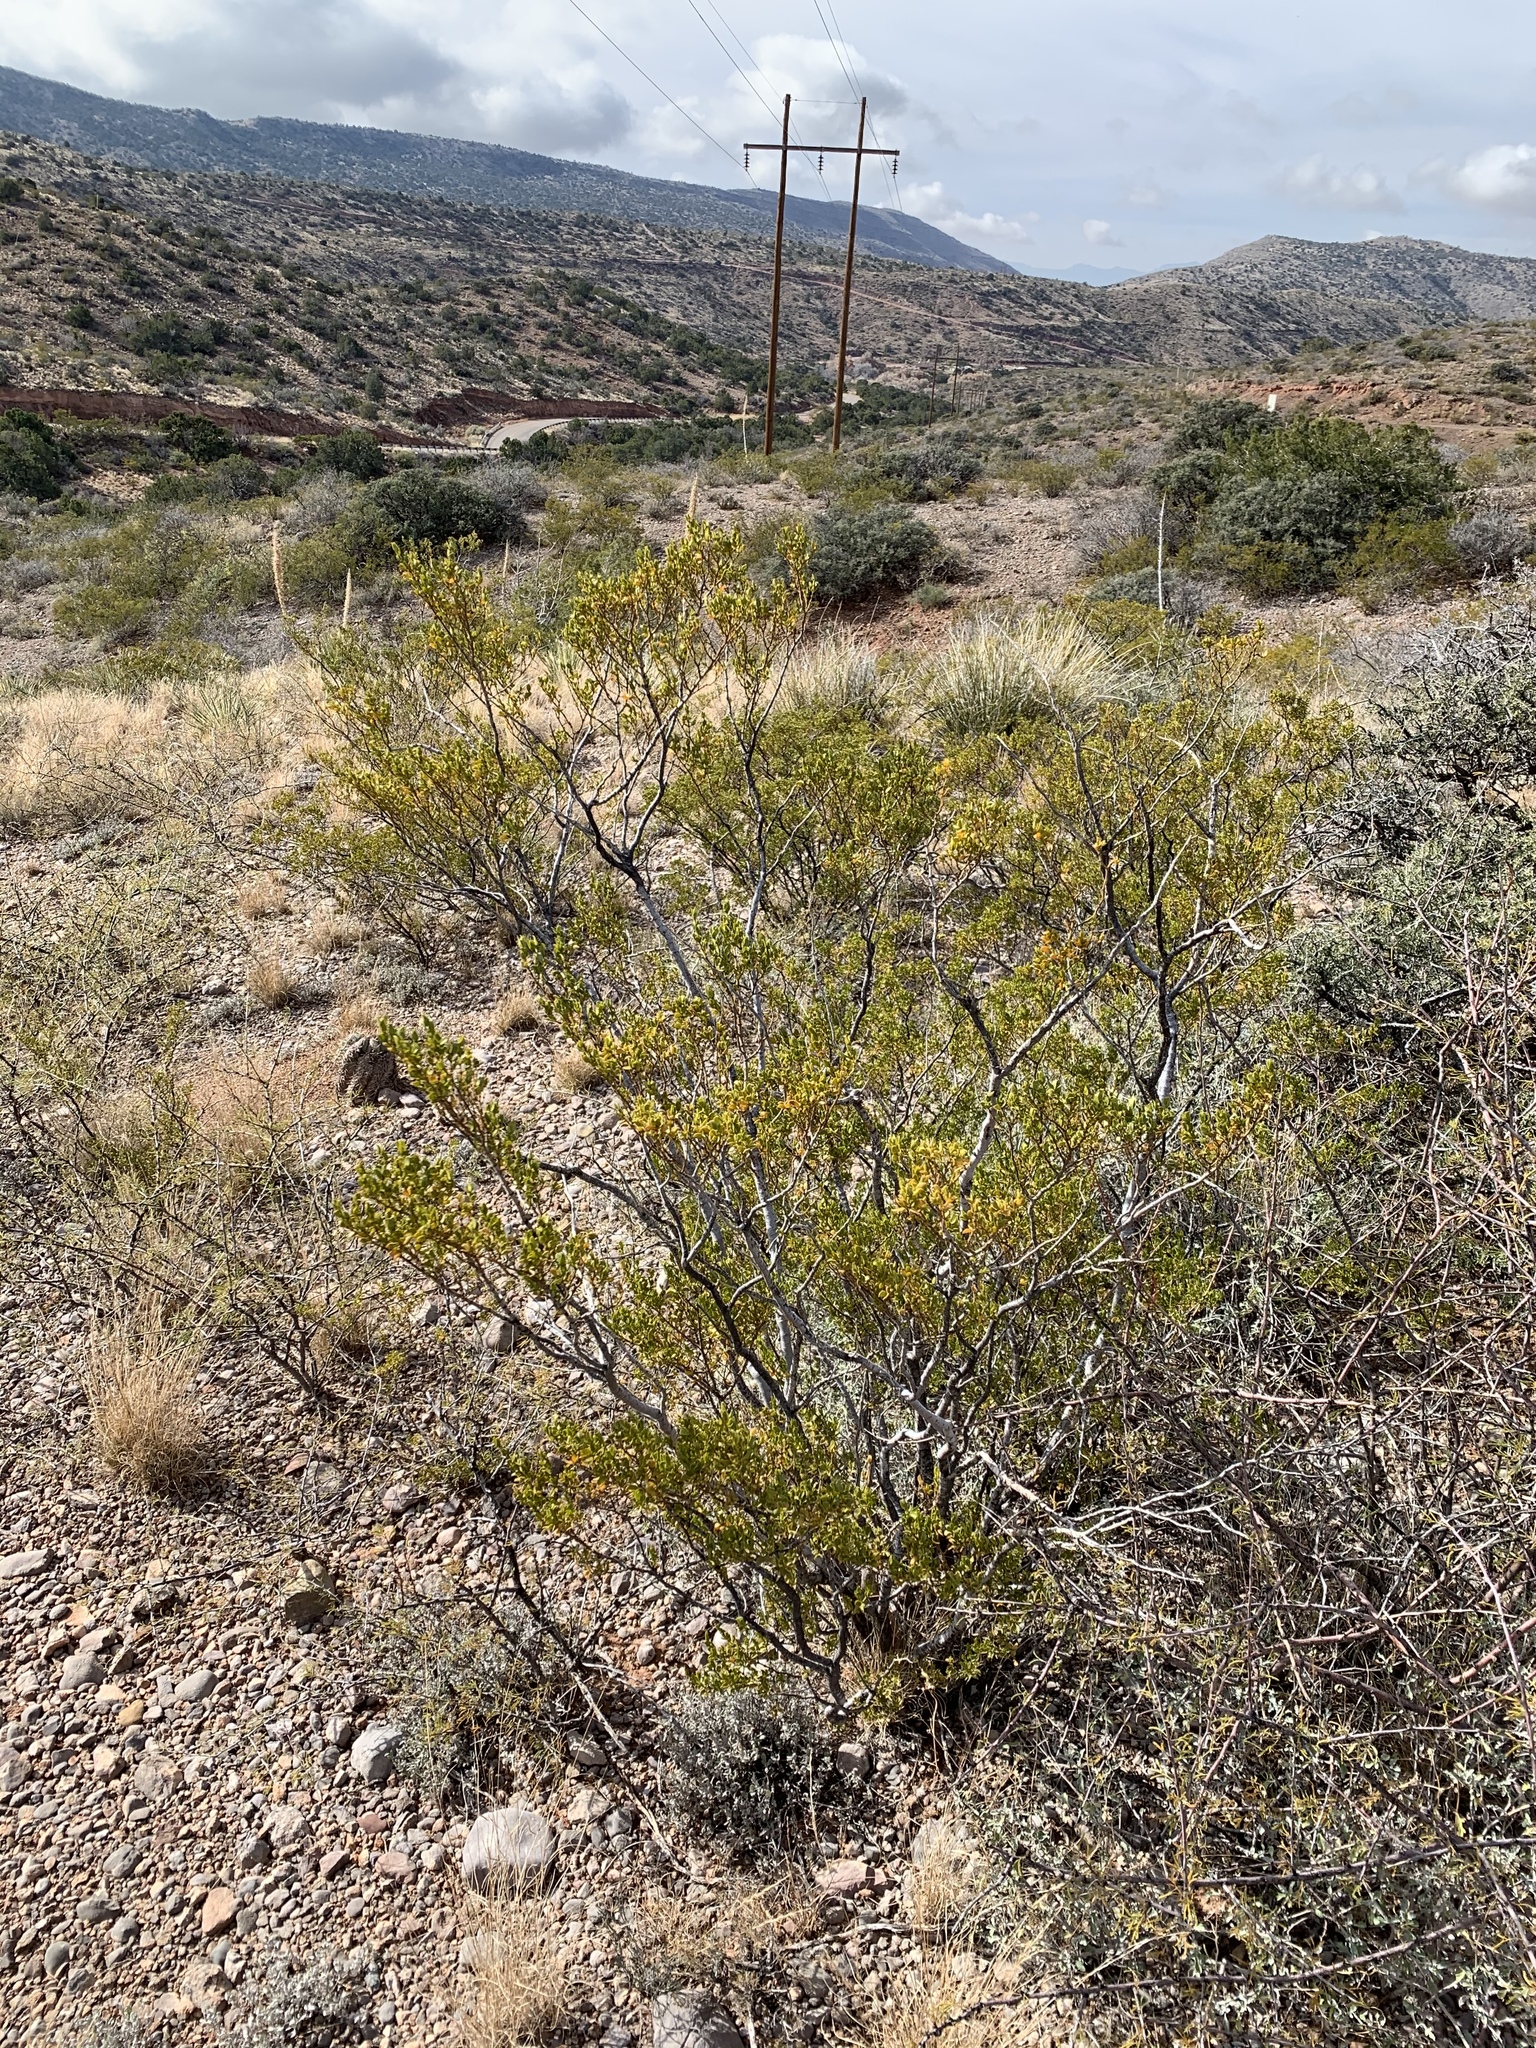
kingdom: Plantae
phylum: Tracheophyta
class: Magnoliopsida
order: Zygophyllales
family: Zygophyllaceae
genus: Larrea
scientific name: Larrea tridentata
